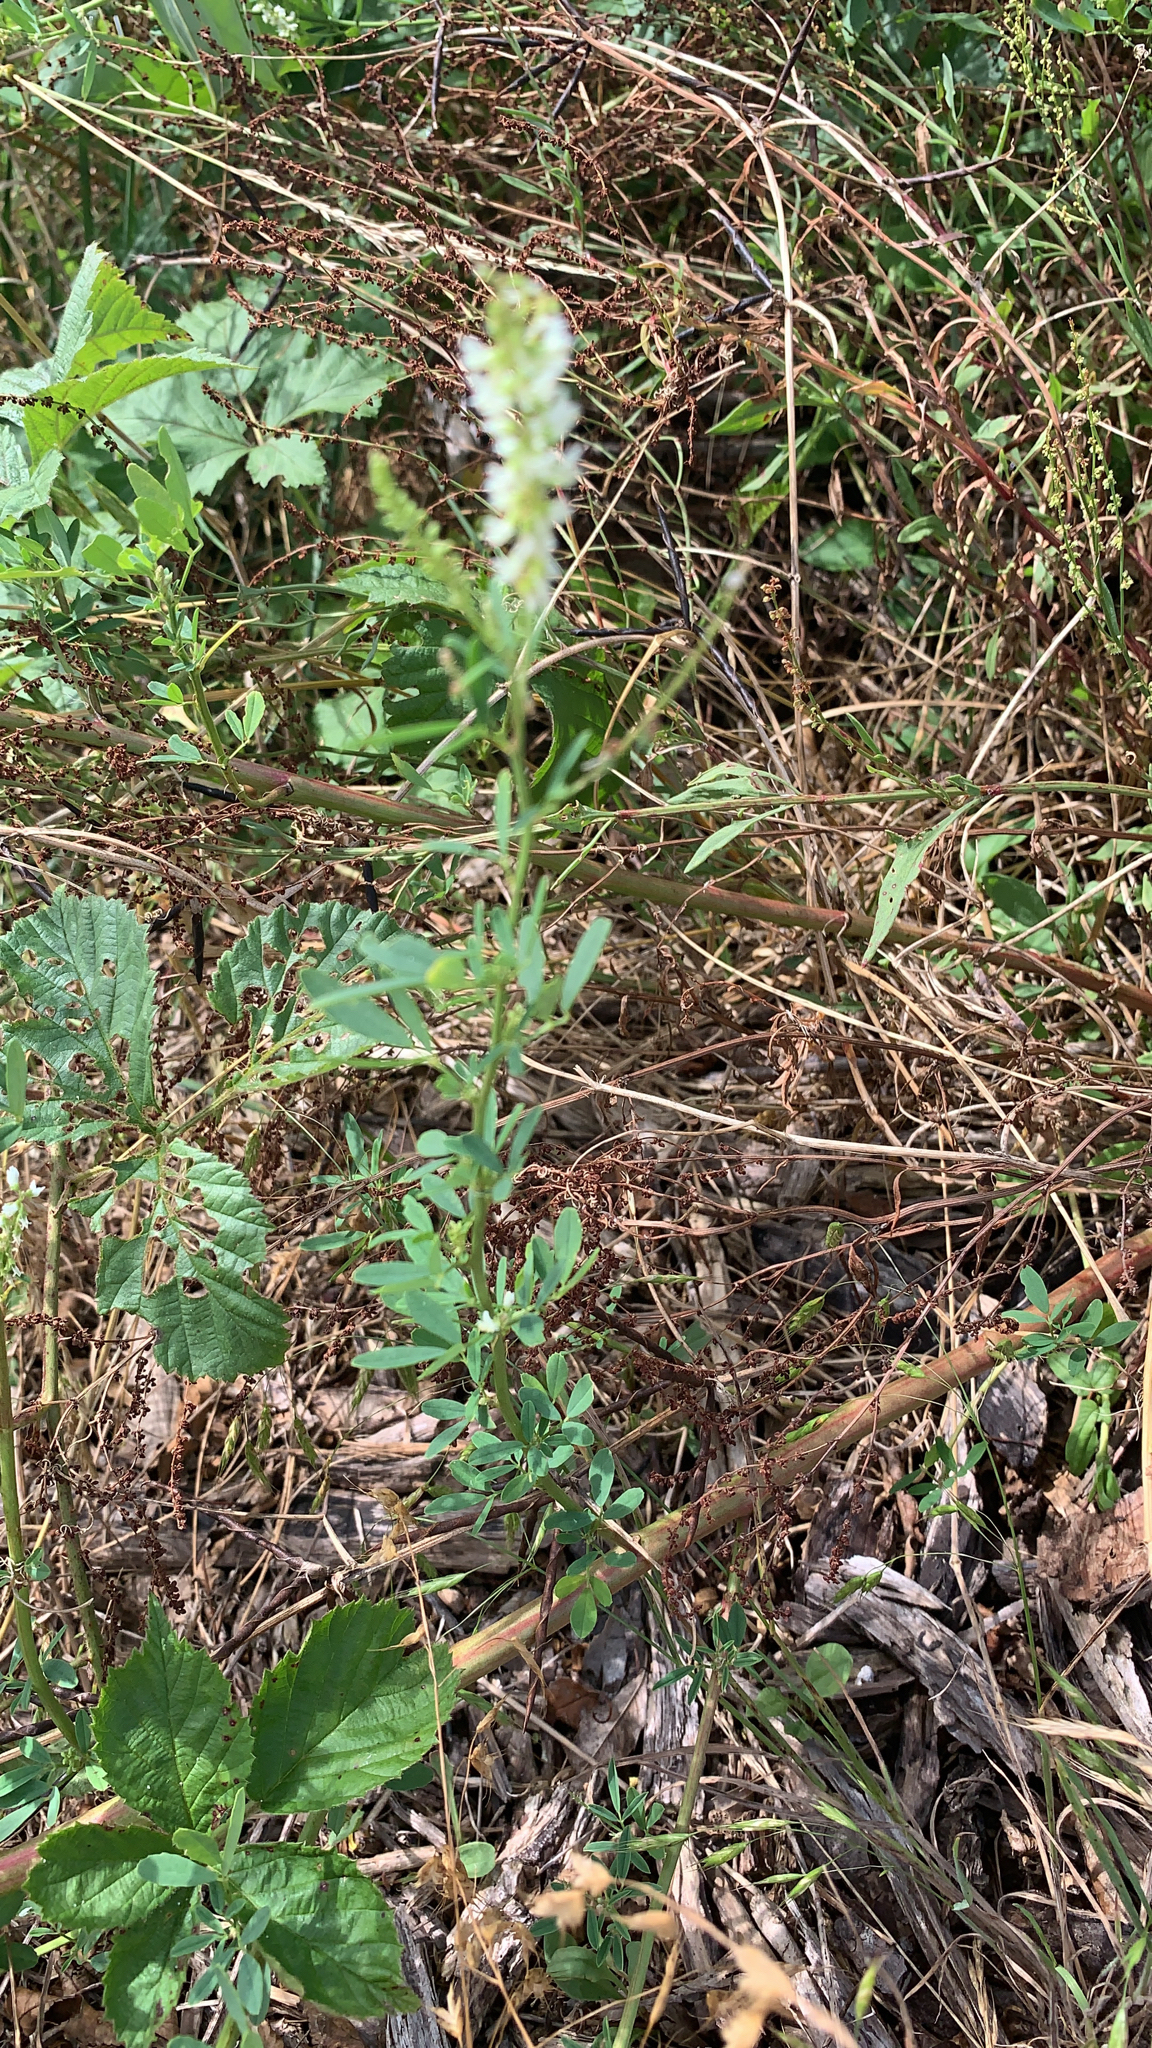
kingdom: Plantae
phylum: Tracheophyta
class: Magnoliopsida
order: Fabales
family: Fabaceae
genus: Melilotus
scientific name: Melilotus albus
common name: White melilot
